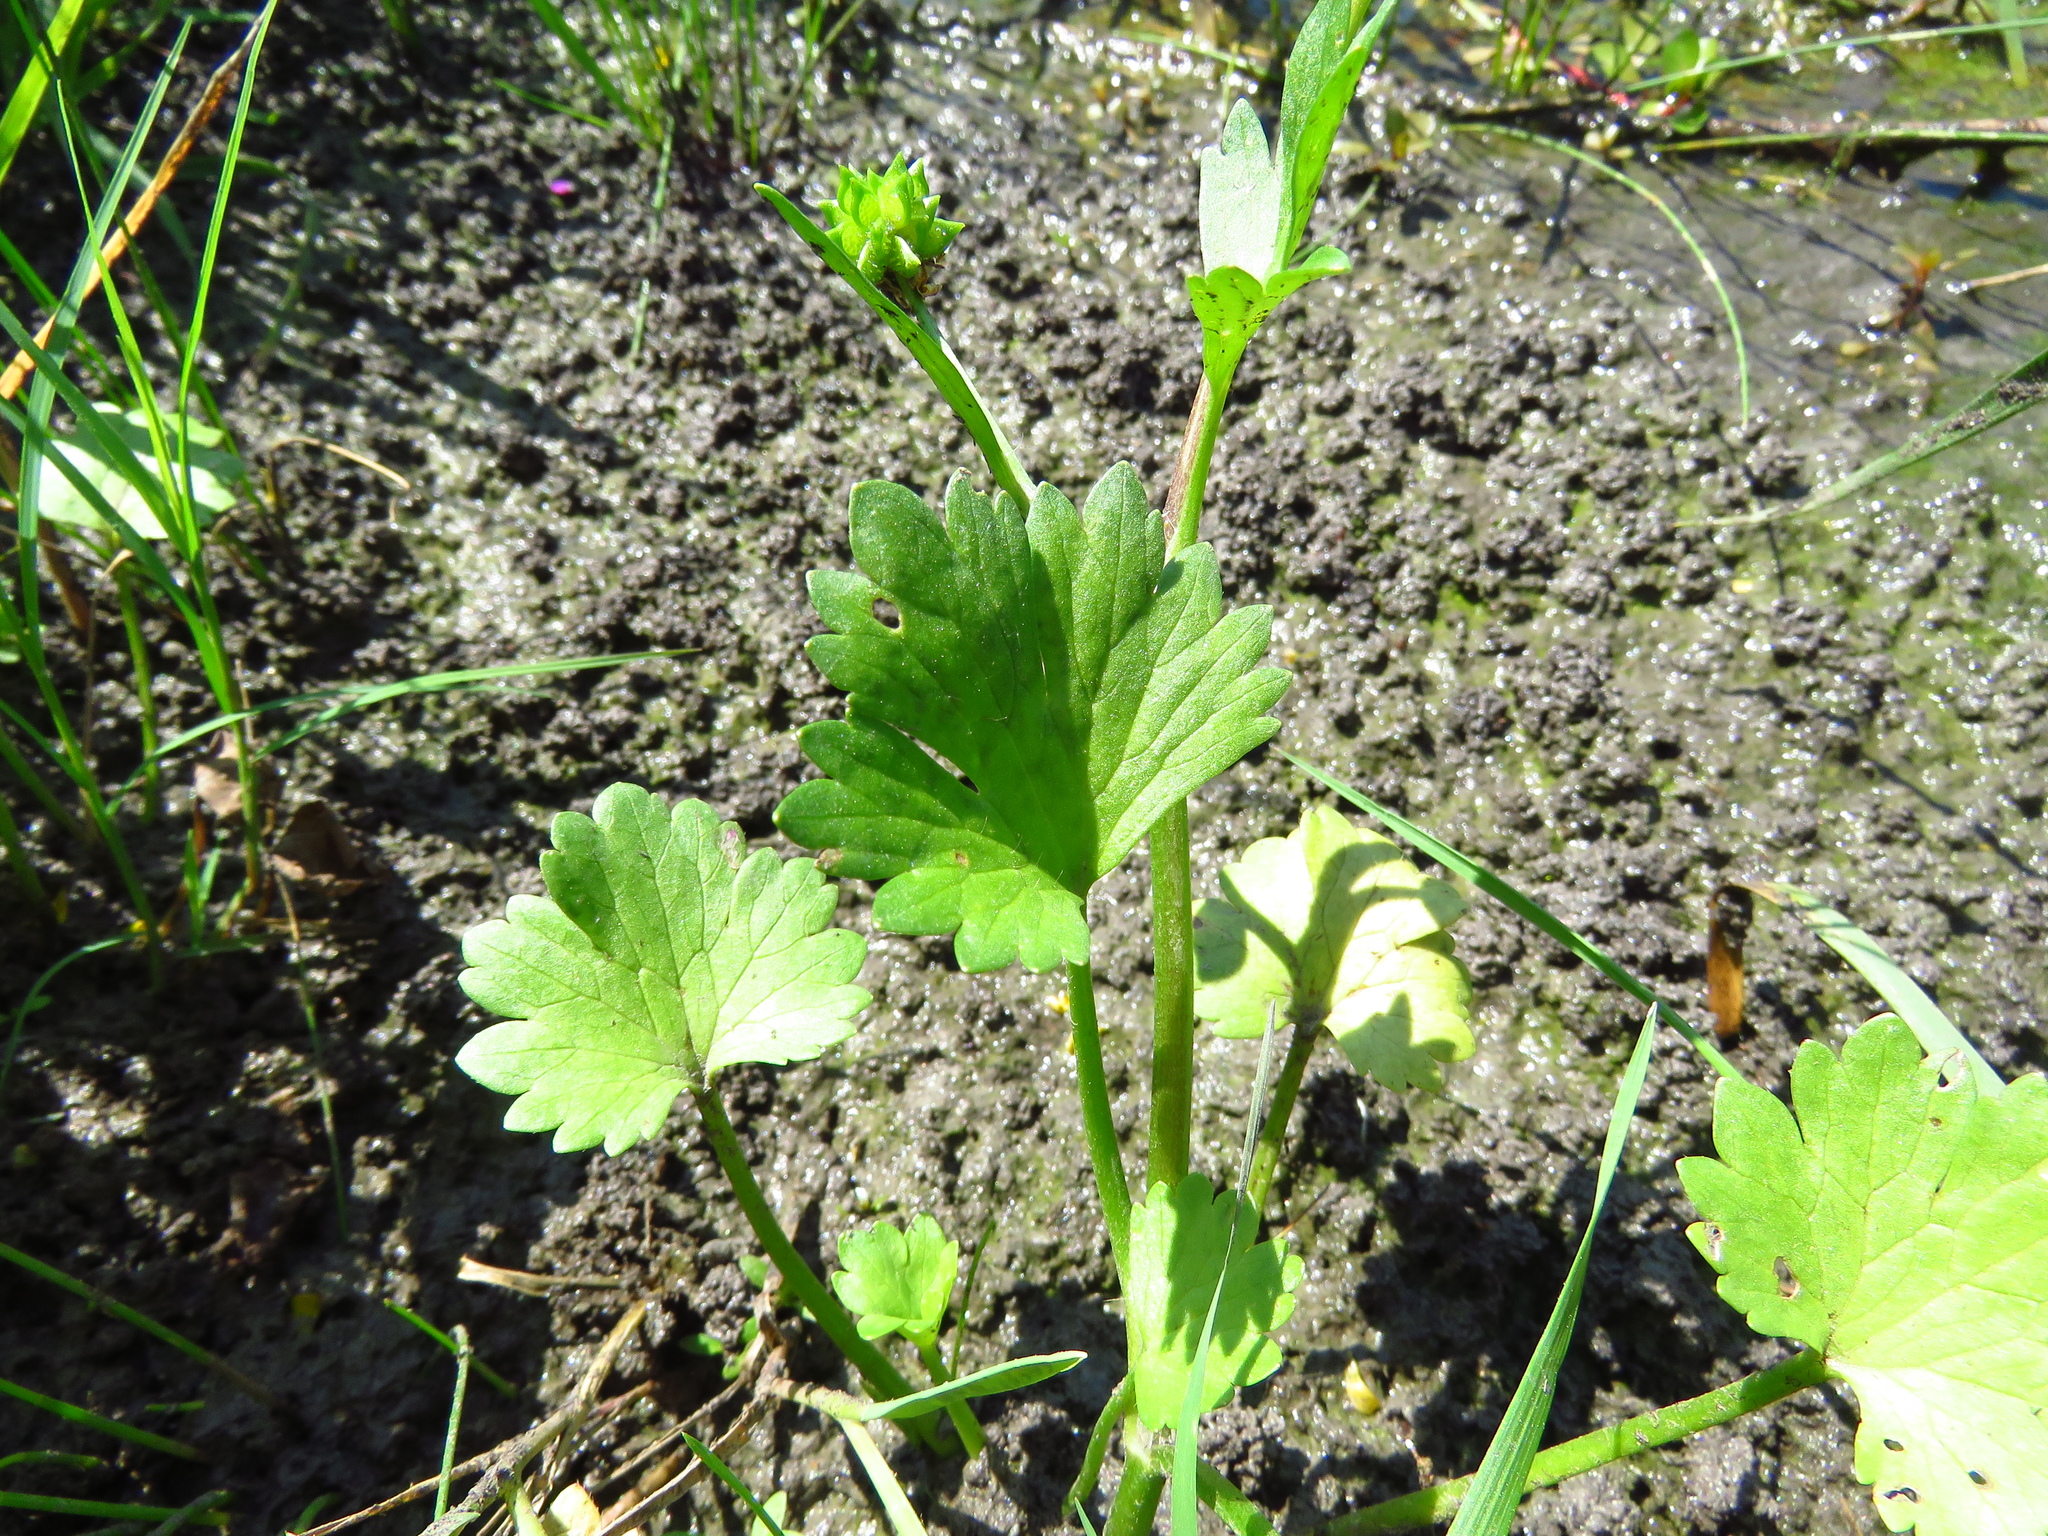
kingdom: Plantae
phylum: Tracheophyta
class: Magnoliopsida
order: Ranunculales
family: Ranunculaceae
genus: Ranunculus
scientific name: Ranunculus muricatus
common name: Rough-fruited buttercup
